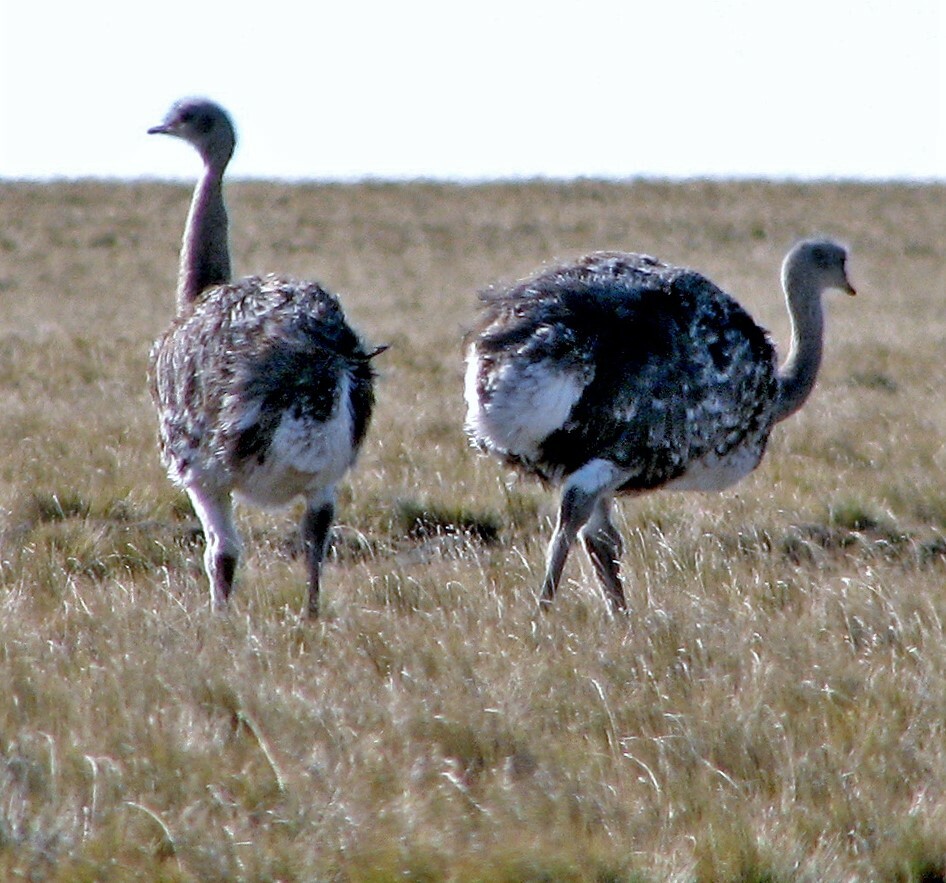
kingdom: Animalia
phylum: Chordata
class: Aves
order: Rheiformes
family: Rheidae
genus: Rhea
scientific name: Rhea pennata
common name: Lesser rhea
